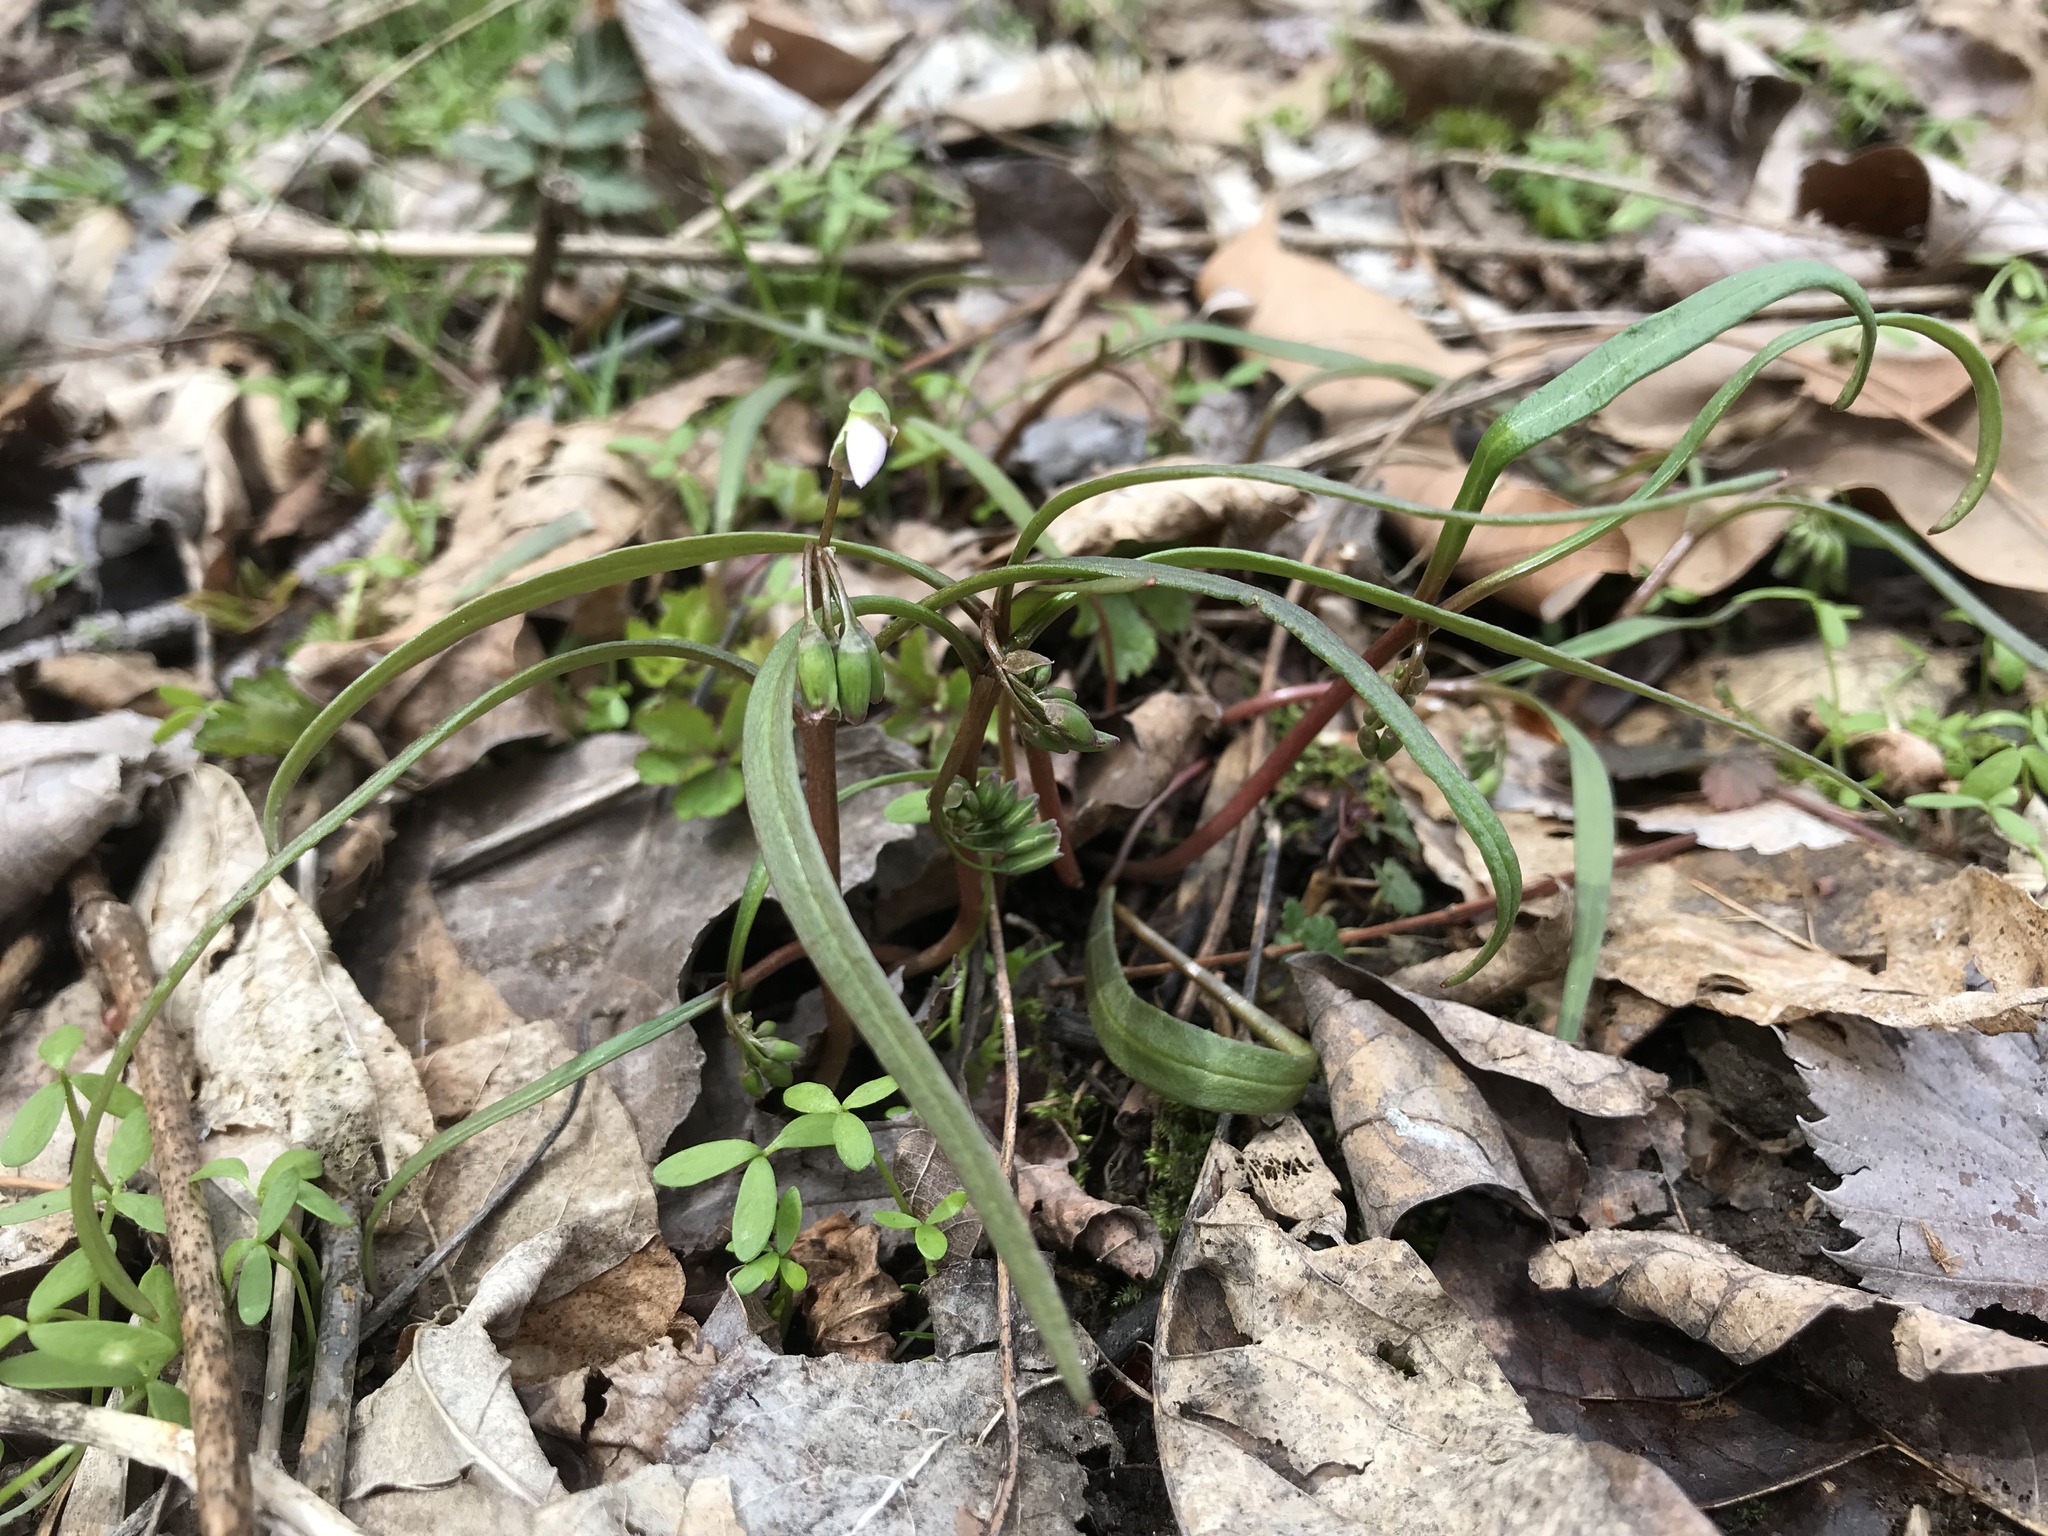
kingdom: Plantae
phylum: Tracheophyta
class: Magnoliopsida
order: Caryophyllales
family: Montiaceae
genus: Claytonia
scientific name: Claytonia virginica
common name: Virginia springbeauty
